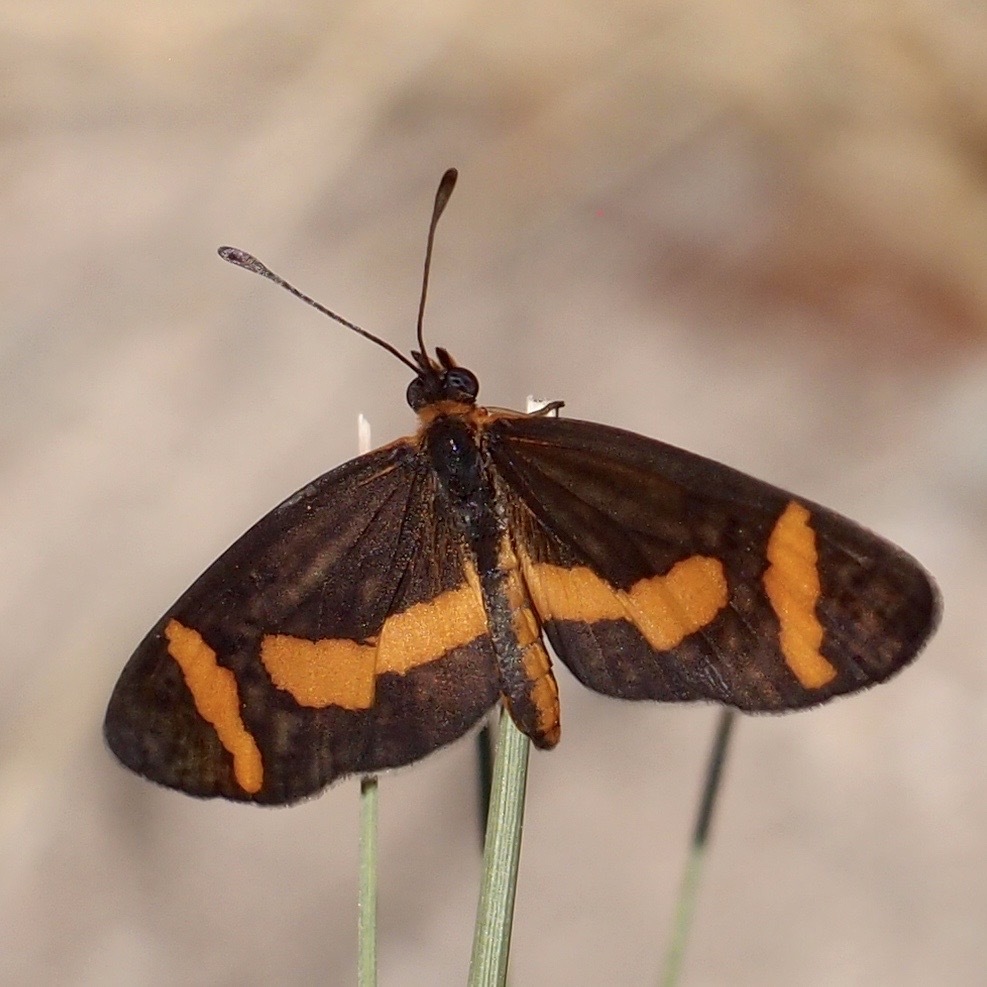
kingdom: Animalia
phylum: Arthropoda
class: Insecta
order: Lepidoptera
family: Nymphalidae
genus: Microtia
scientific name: Microtia elva
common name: Elf
